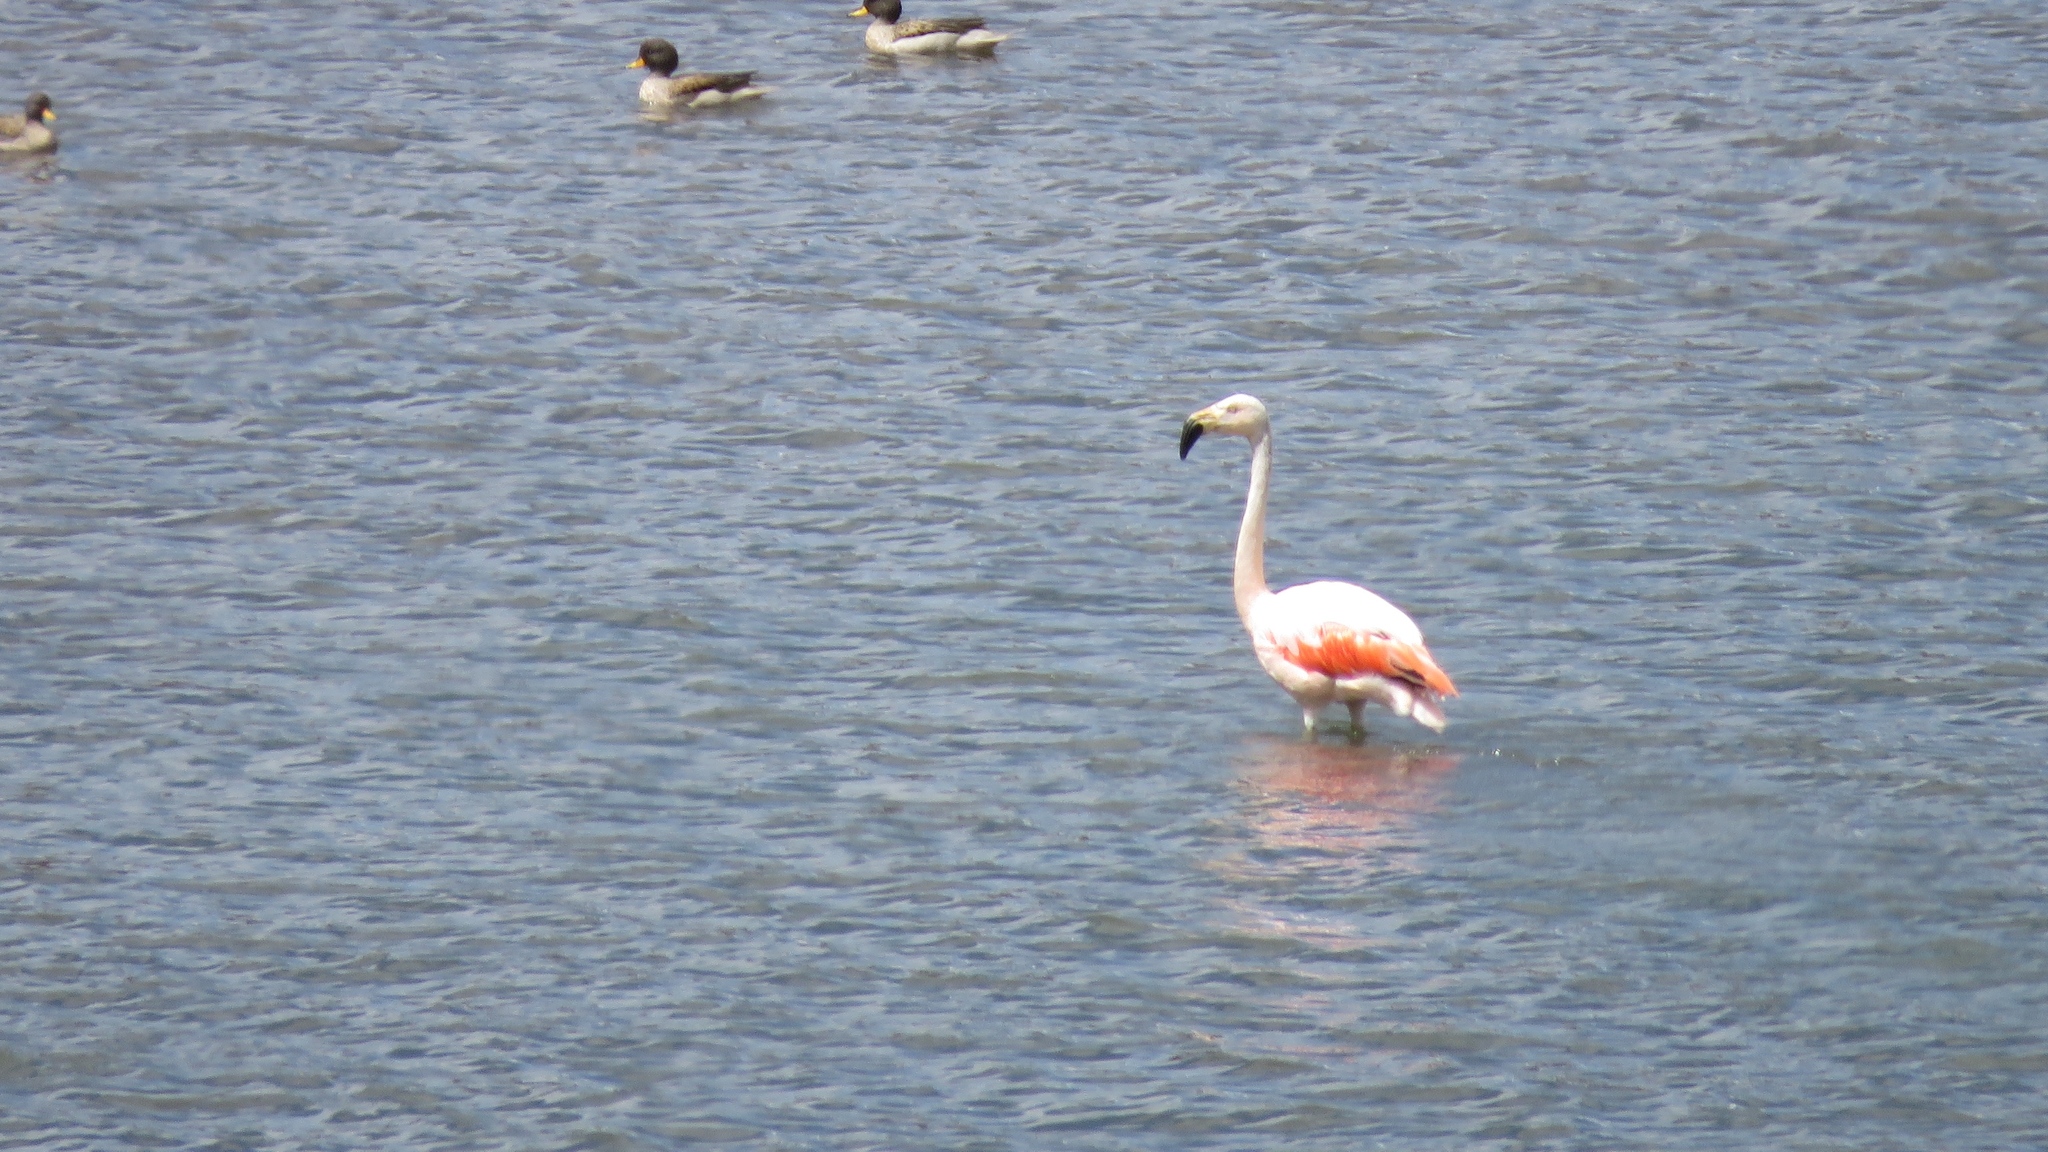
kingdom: Animalia
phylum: Chordata
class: Aves
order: Phoenicopteriformes
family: Phoenicopteridae
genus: Phoenicopterus
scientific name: Phoenicopterus chilensis
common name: Chilean flamingo
